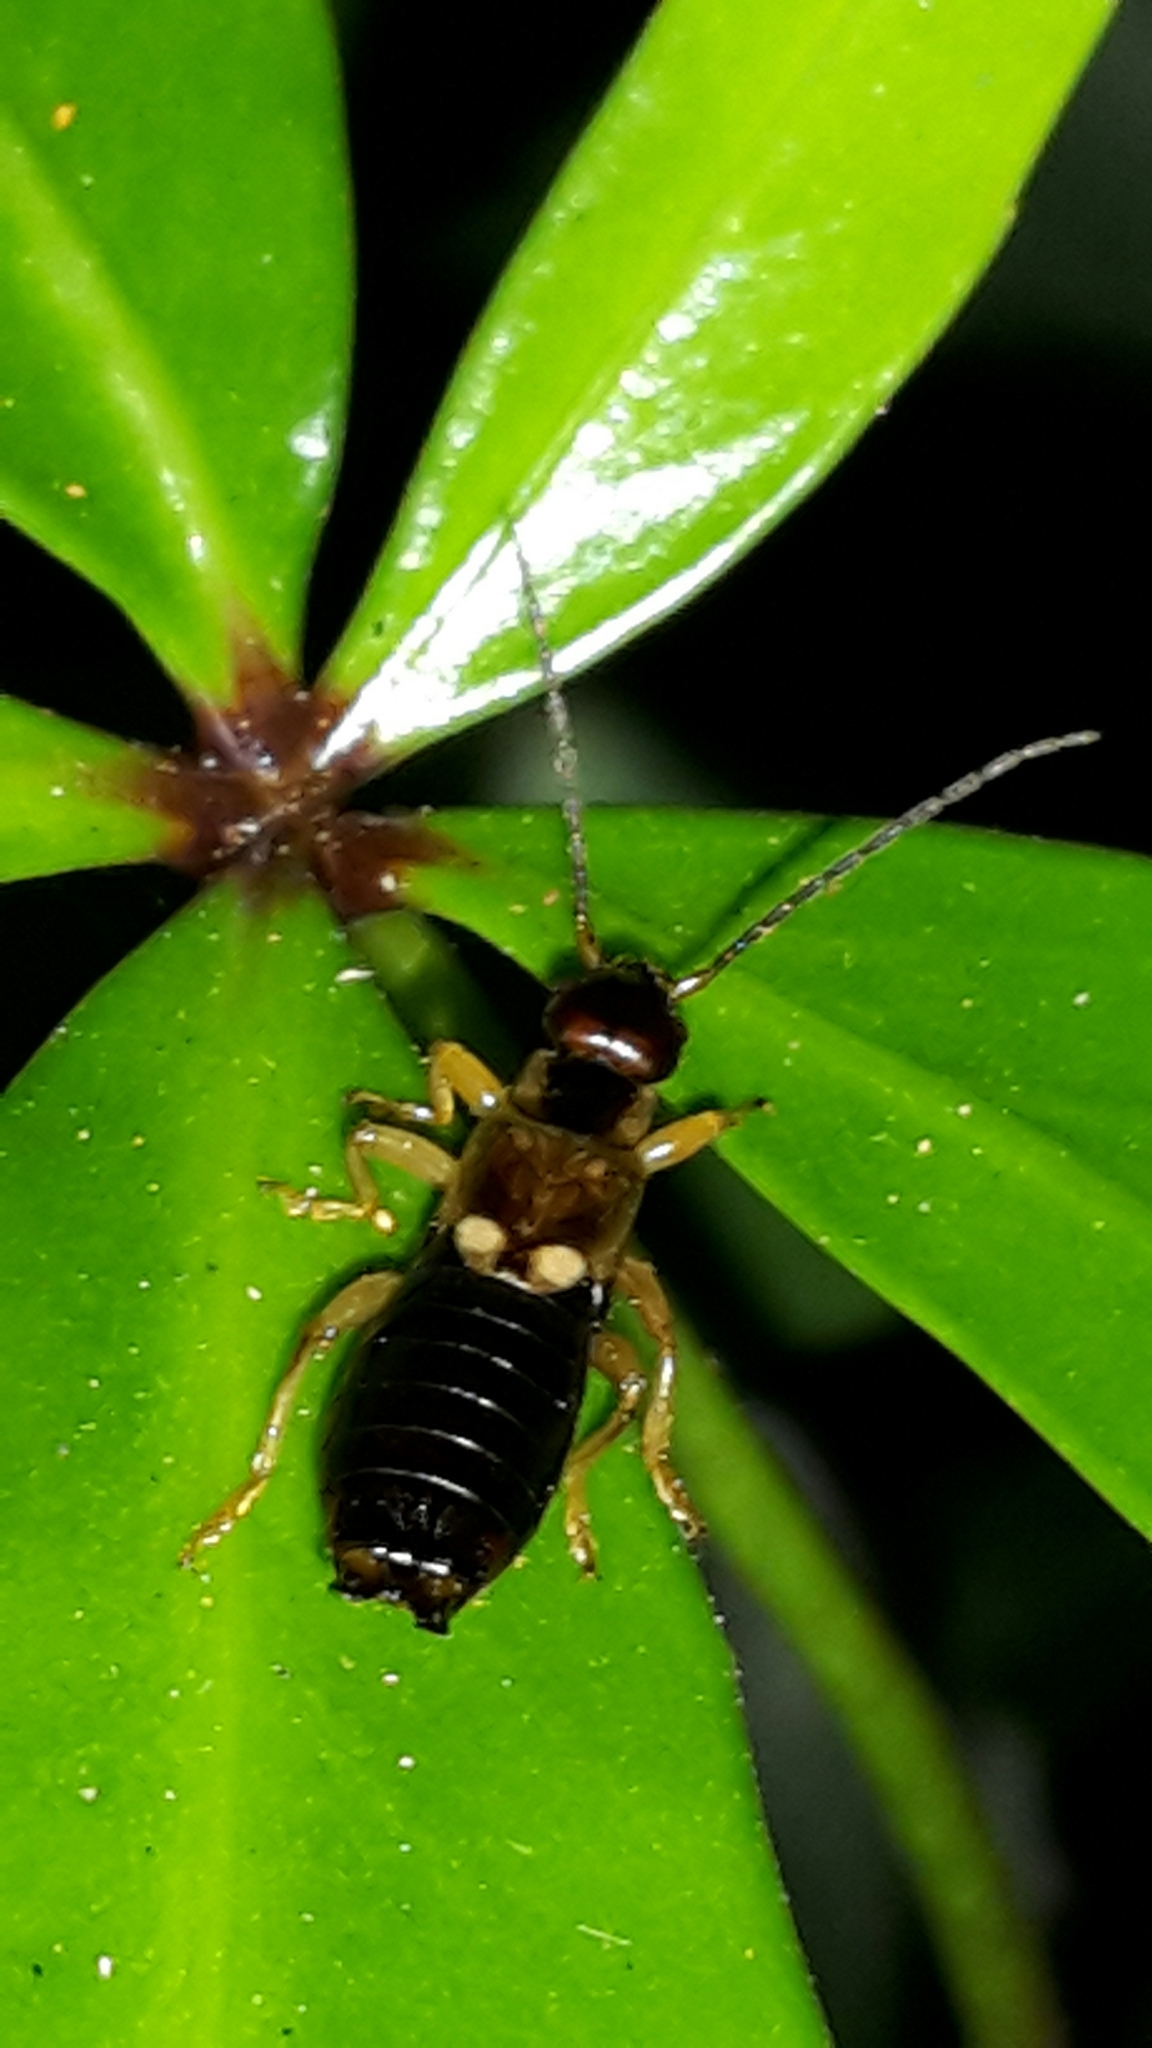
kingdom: Animalia
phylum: Arthropoda
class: Insecta
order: Dermaptera
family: Forficulidae
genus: Forficula
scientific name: Forficula
